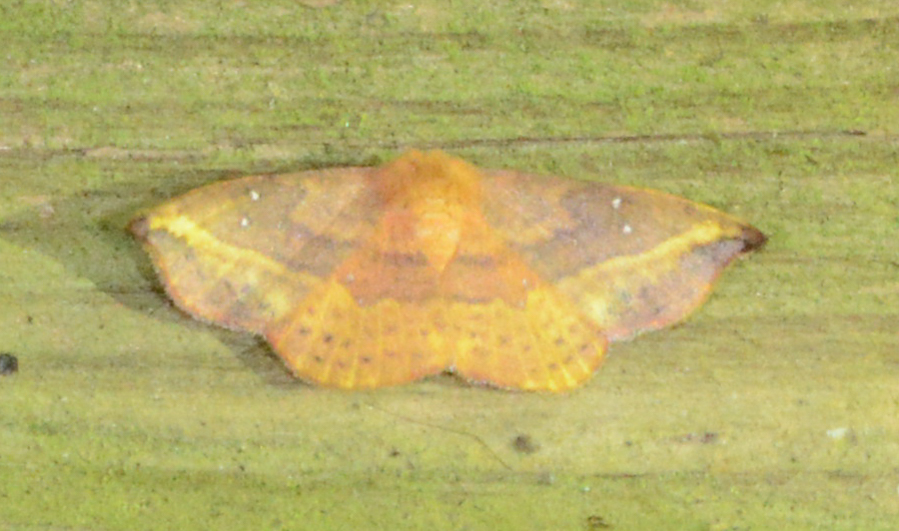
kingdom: Animalia
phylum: Arthropoda
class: Insecta
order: Lepidoptera
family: Drepanidae
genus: Oreta
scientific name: Oreta rosea
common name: Rose hooktip
